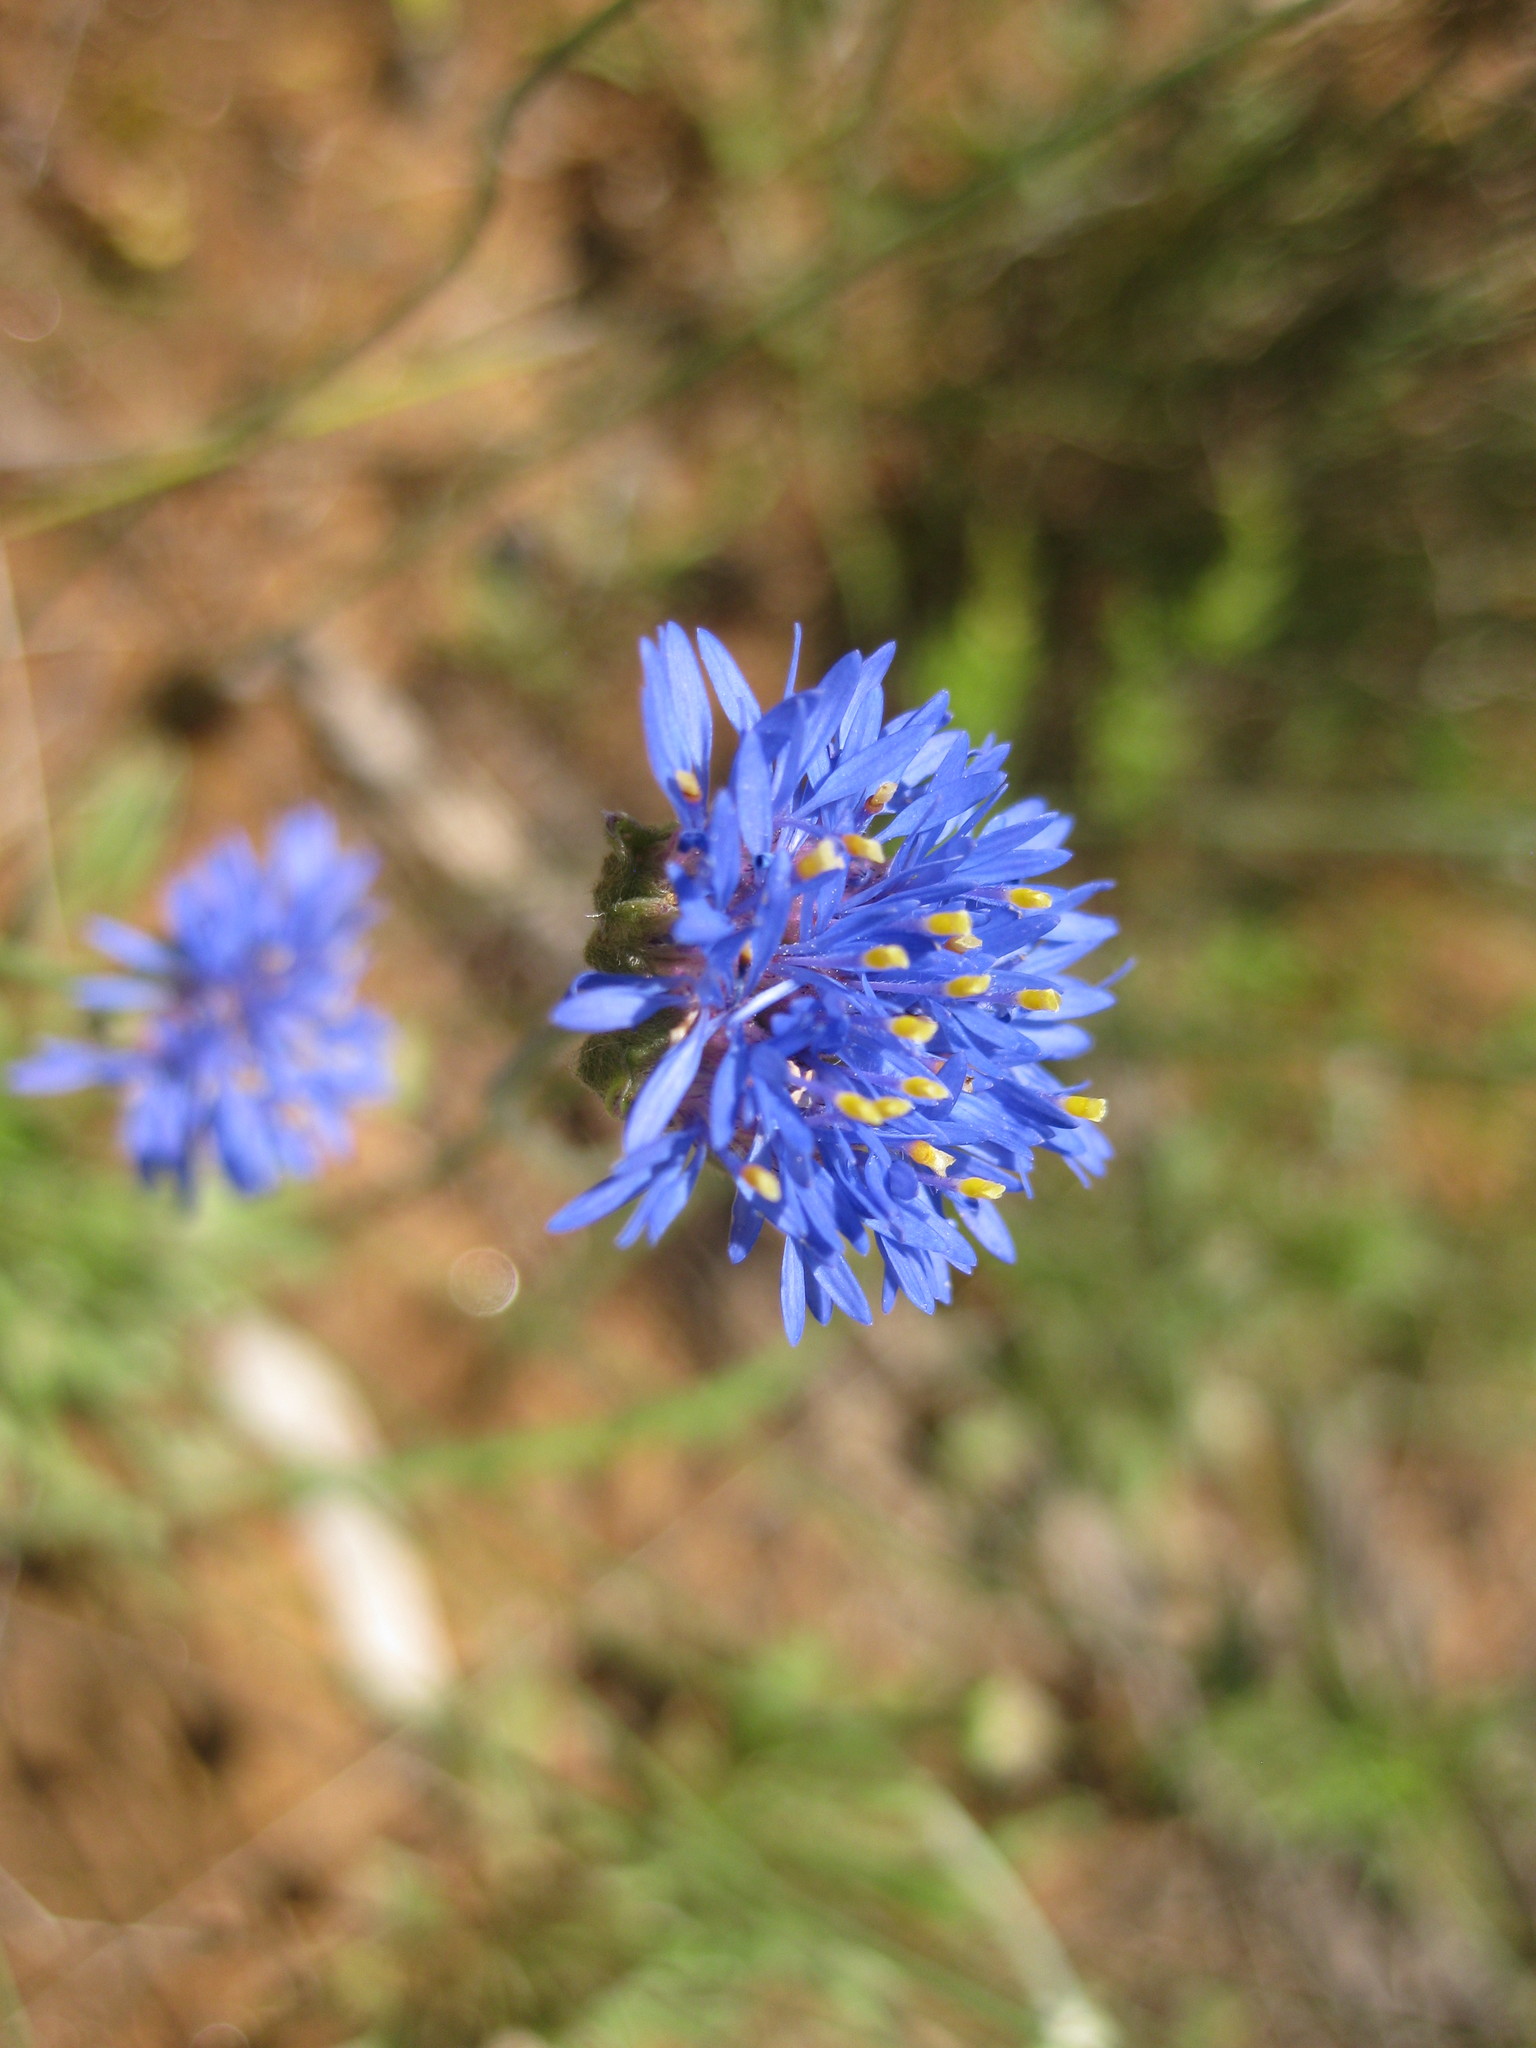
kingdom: Plantae
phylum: Tracheophyta
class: Magnoliopsida
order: Asterales
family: Goodeniaceae
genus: Brunonia
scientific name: Brunonia australis
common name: Blue pincushion
